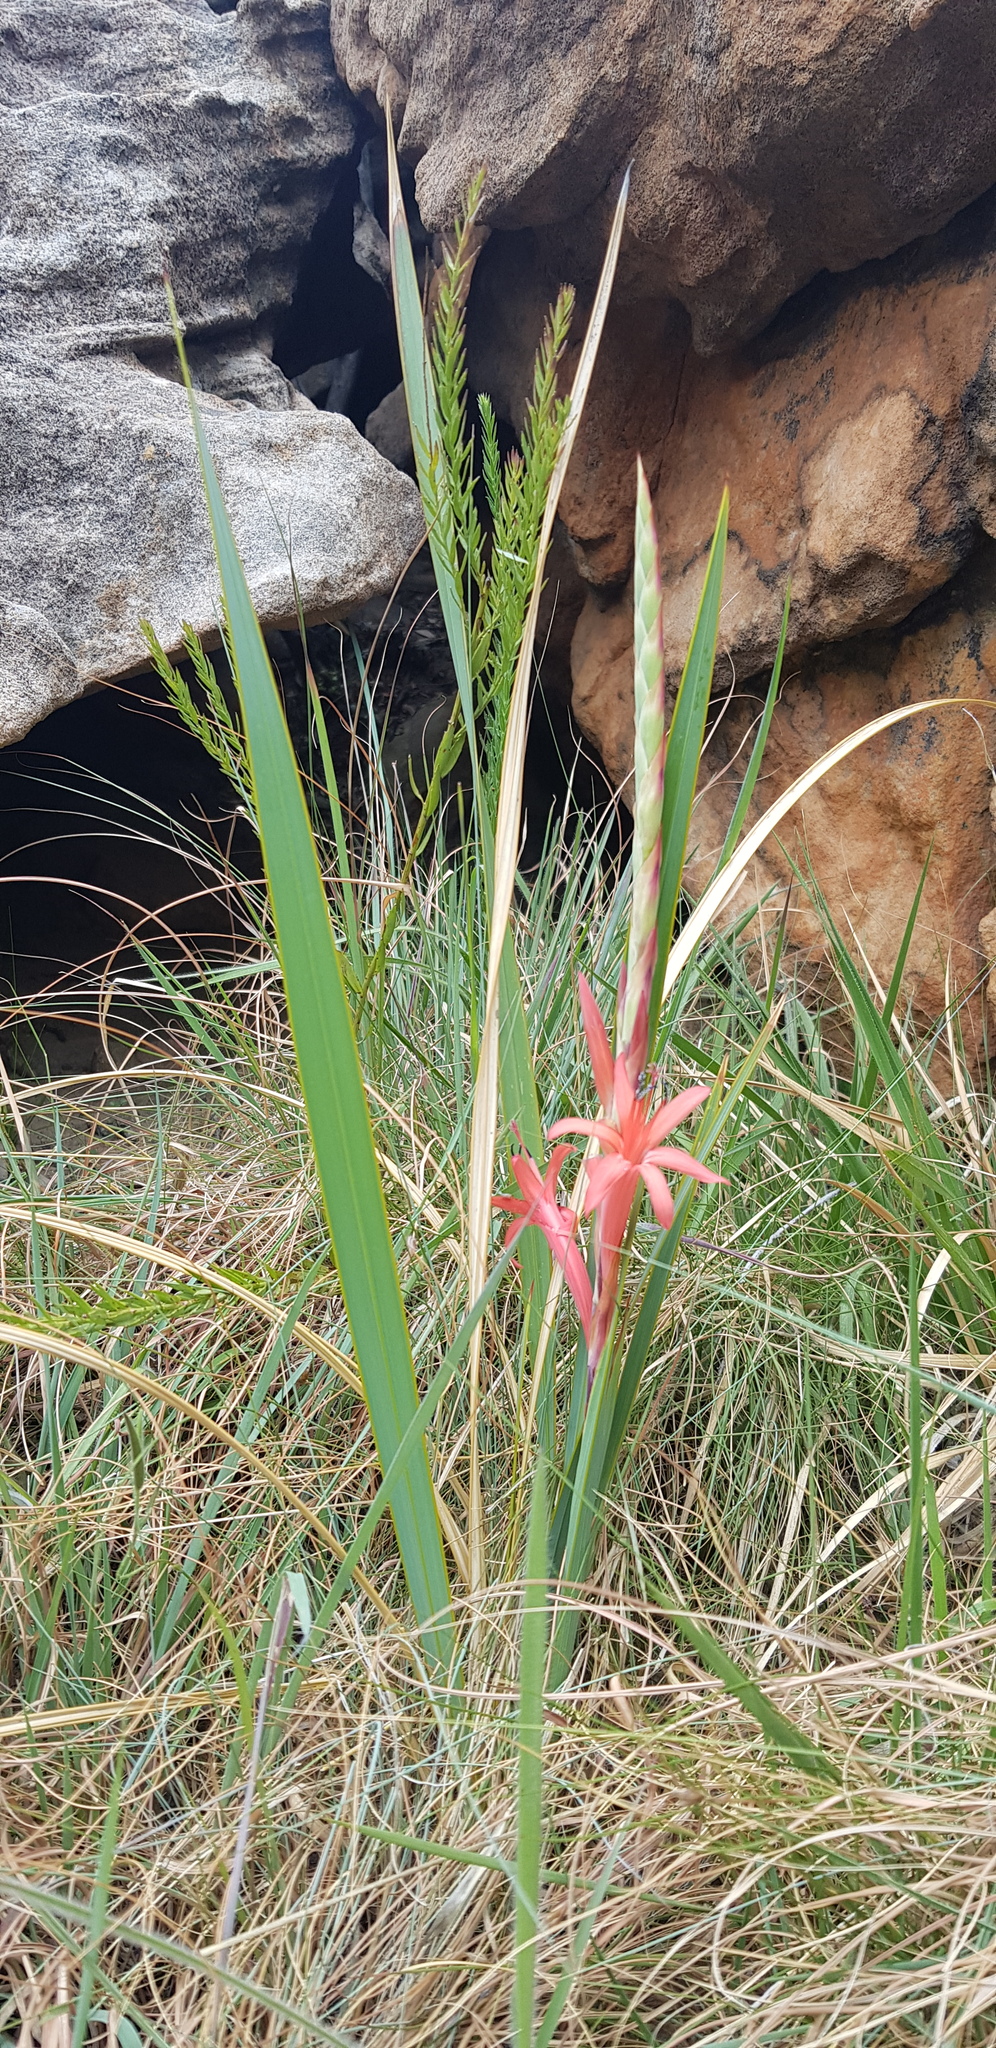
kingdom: Plantae
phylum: Tracheophyta
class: Liliopsida
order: Asparagales
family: Iridaceae
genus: Watsonia
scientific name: Watsonia gladioloides
